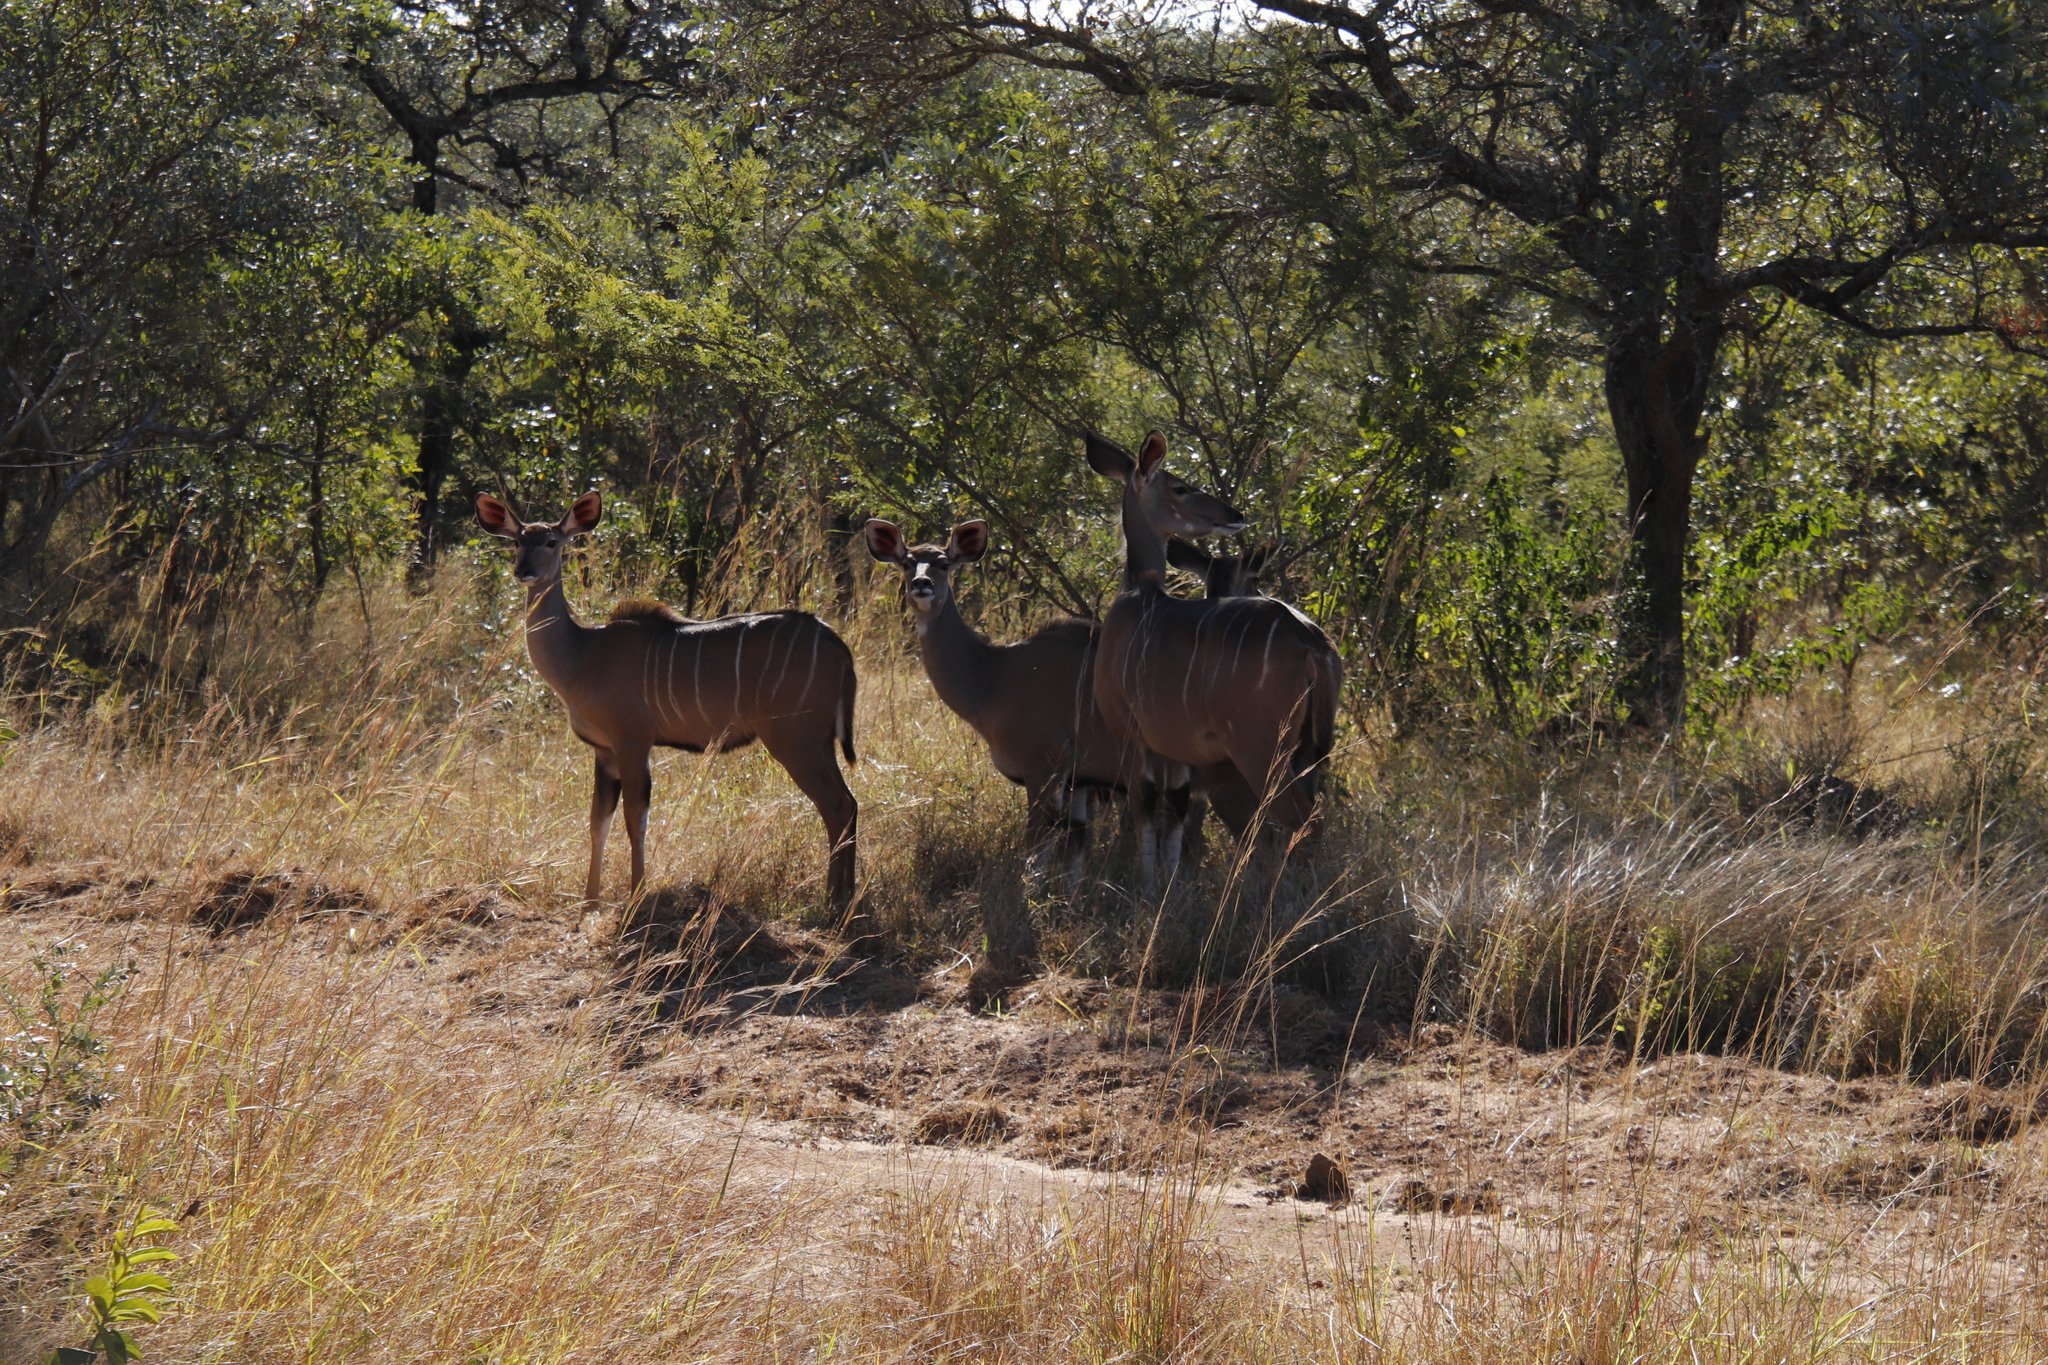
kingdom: Animalia
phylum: Chordata
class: Mammalia
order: Artiodactyla
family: Bovidae
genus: Tragelaphus
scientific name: Tragelaphus strepsiceros
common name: Greater kudu
